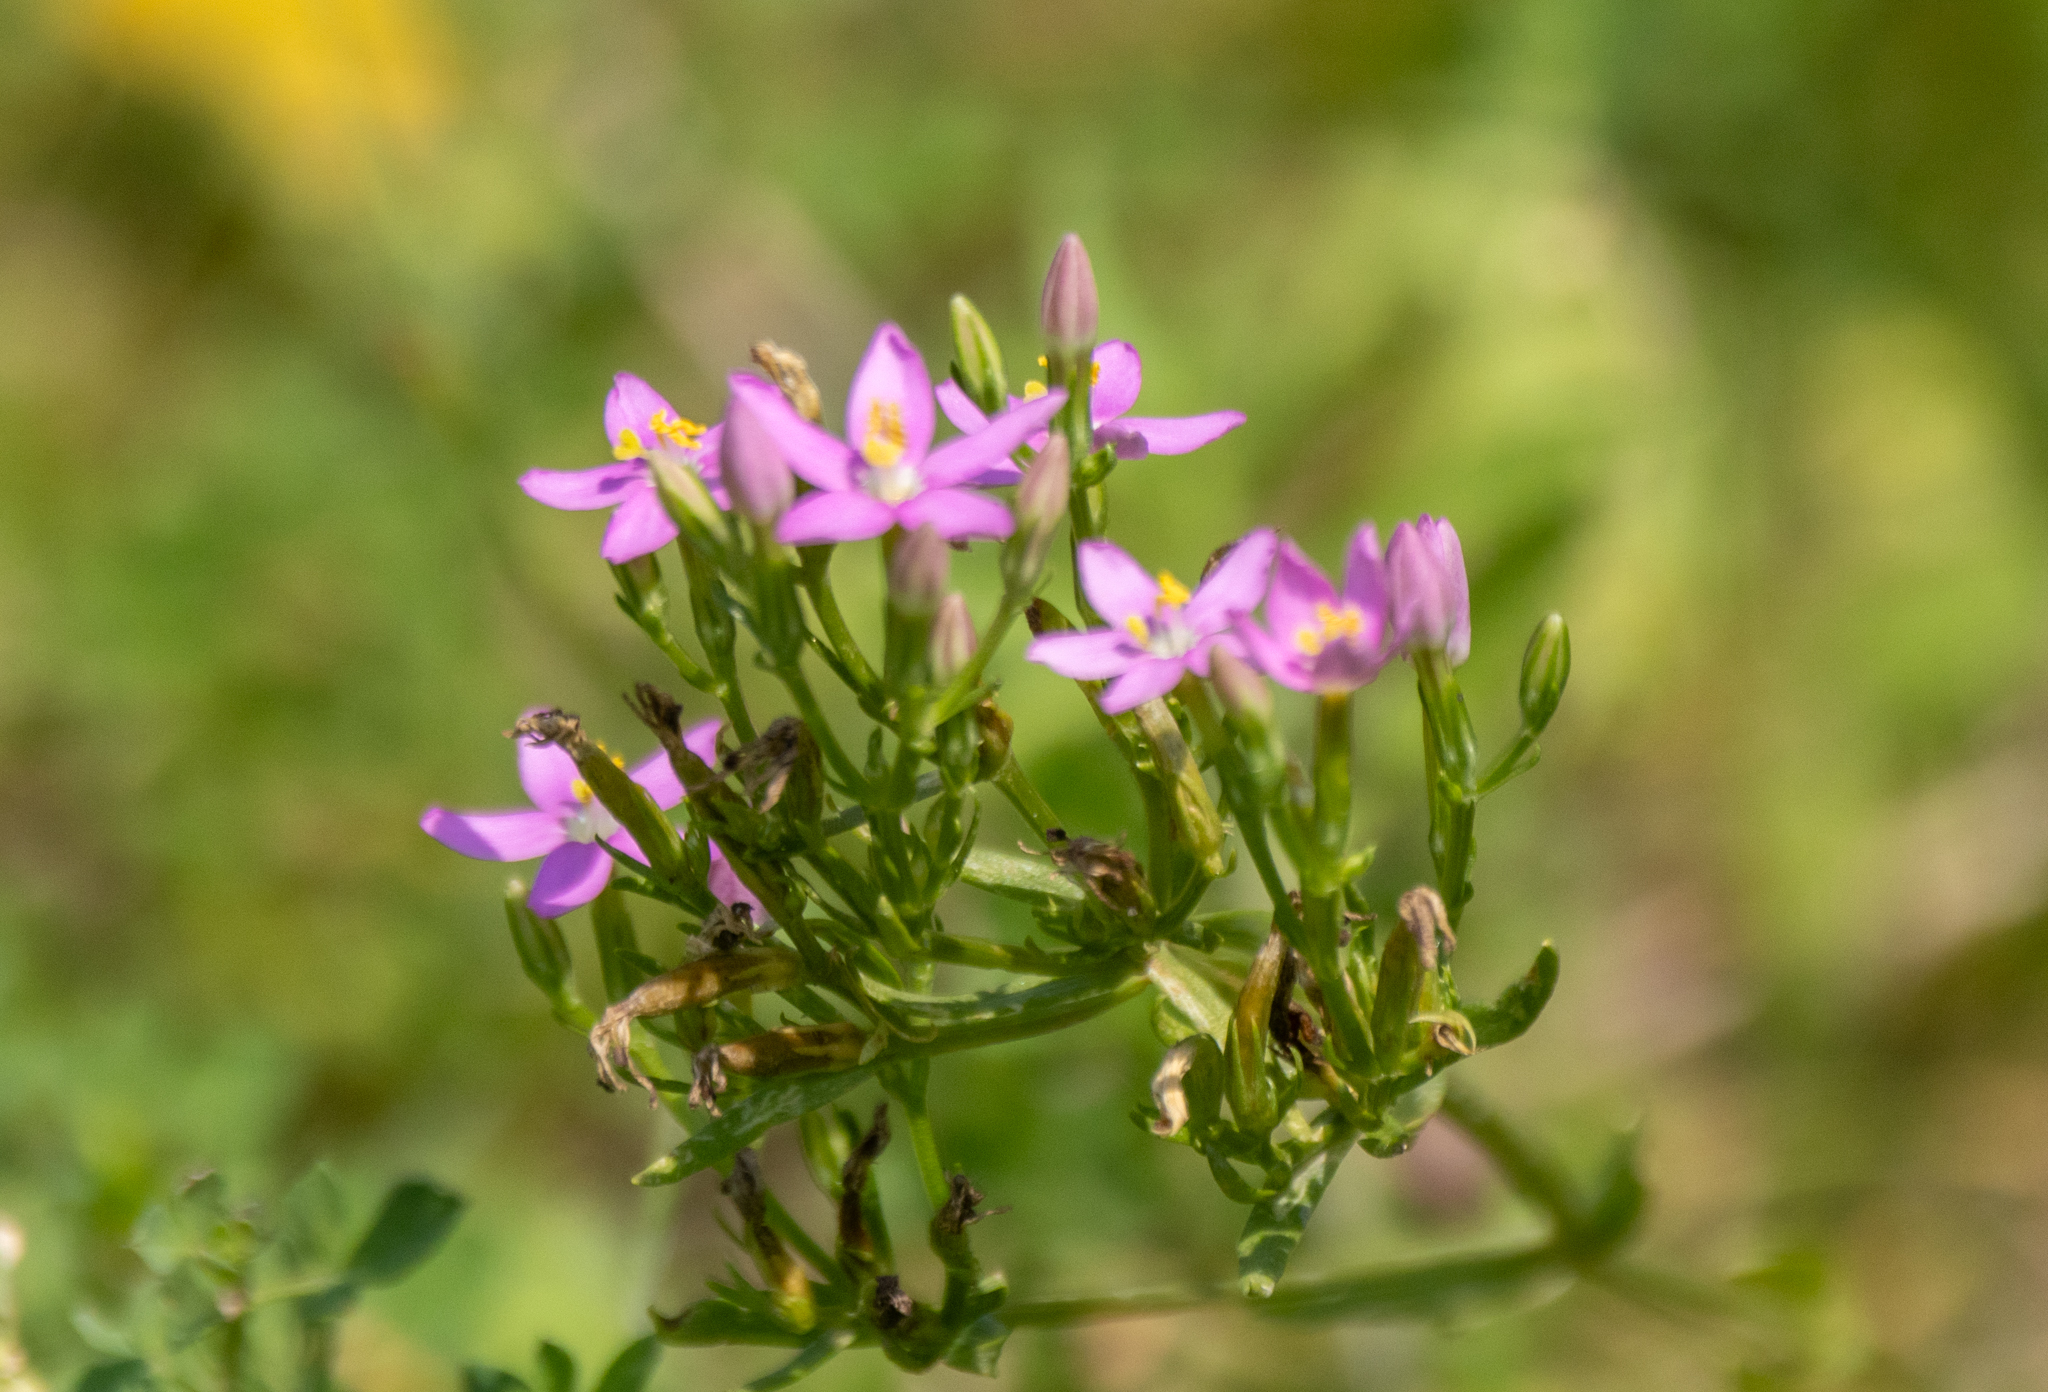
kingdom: Plantae
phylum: Tracheophyta
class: Magnoliopsida
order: Gentianales
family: Gentianaceae
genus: Centaurium
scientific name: Centaurium erythraea
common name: Common centaury
